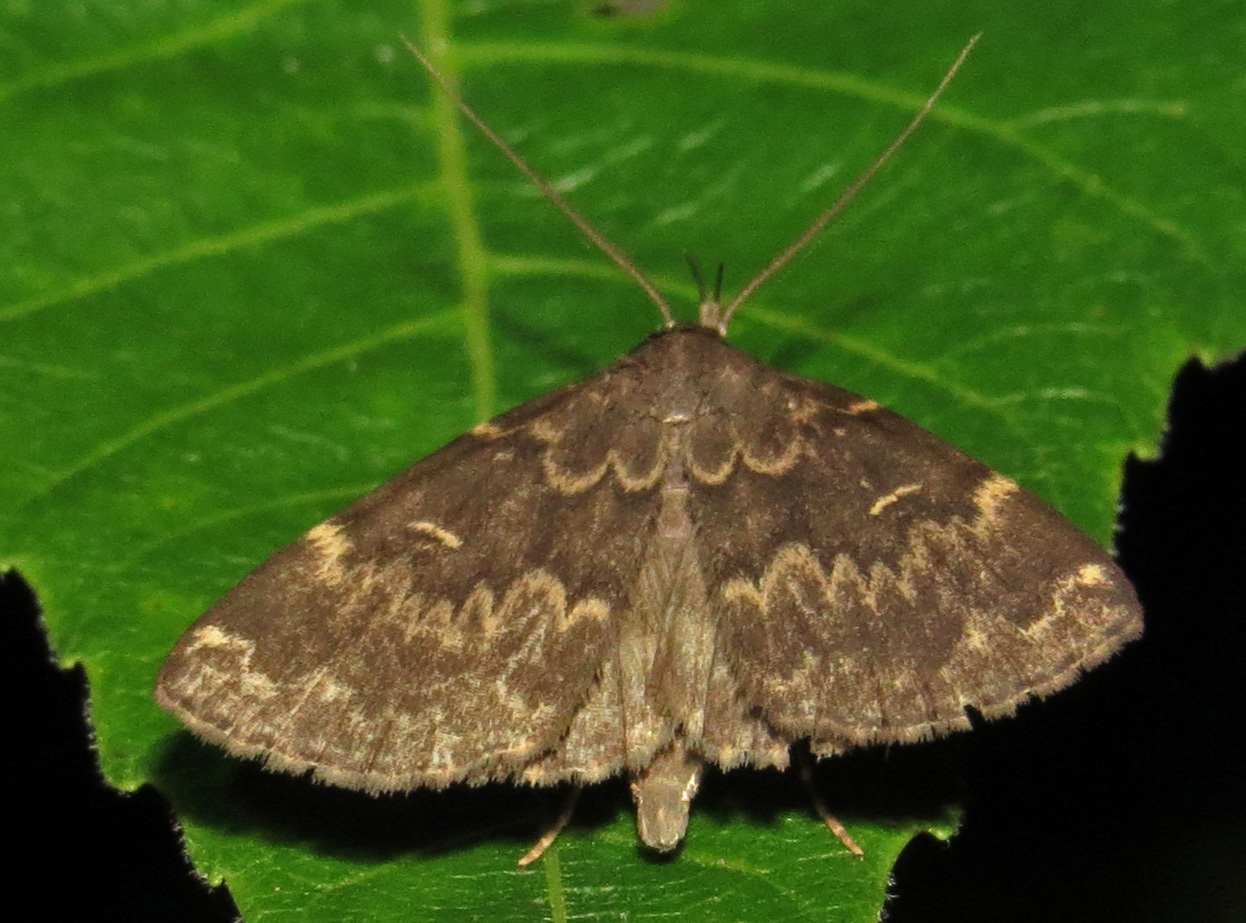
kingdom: Animalia
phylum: Arthropoda
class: Insecta
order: Lepidoptera
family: Erebidae
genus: Idia
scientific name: Idia lubricalis
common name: Twin-striped tabby
